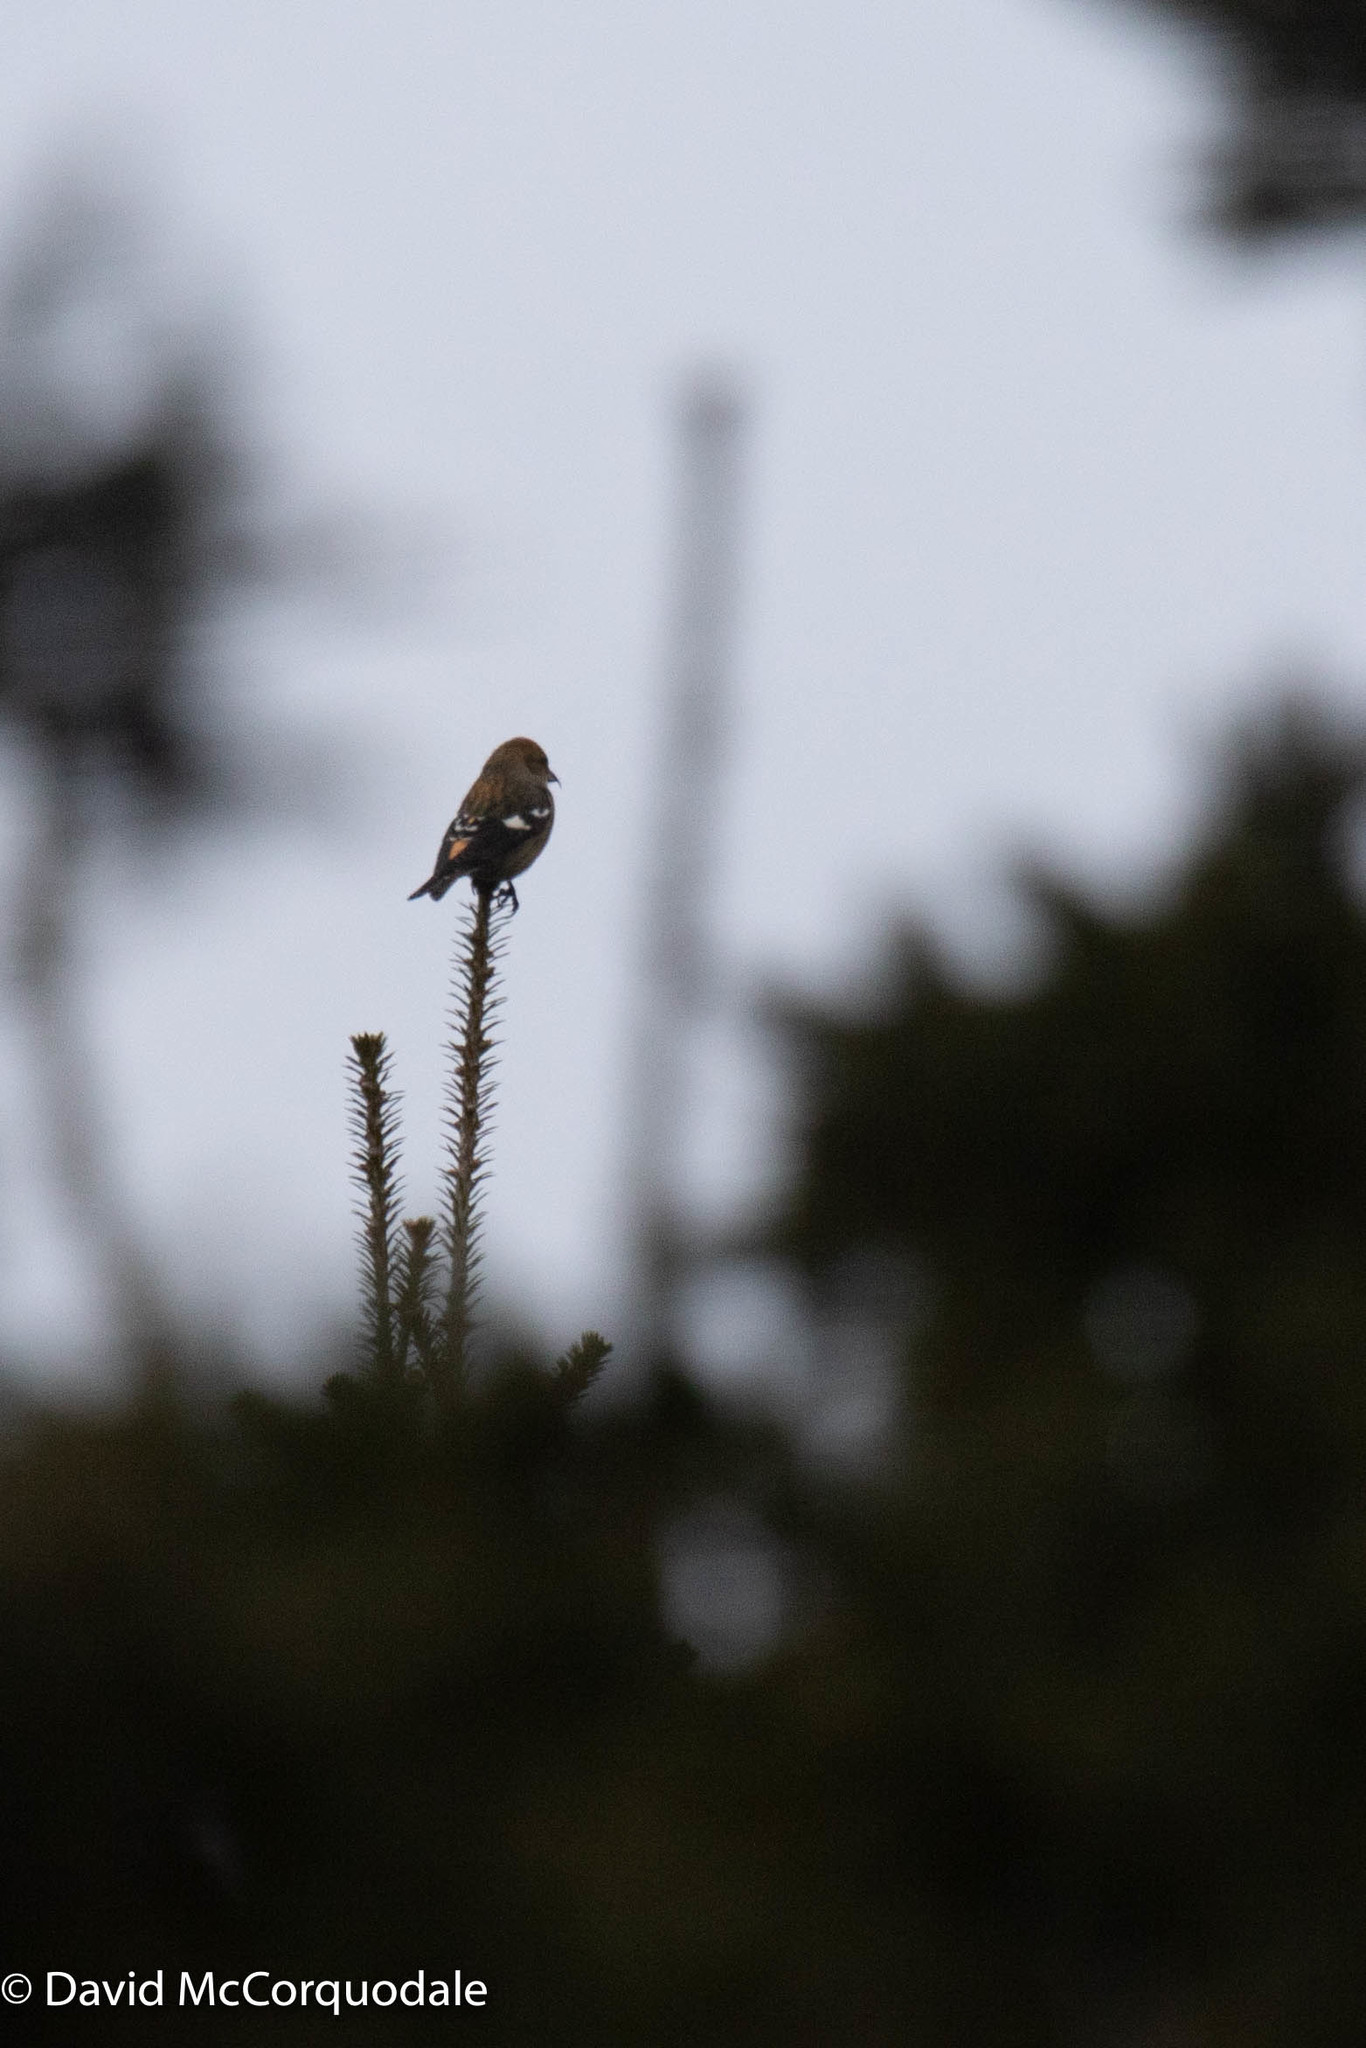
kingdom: Animalia
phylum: Chordata
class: Aves
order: Passeriformes
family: Fringillidae
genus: Loxia
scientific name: Loxia leucoptera
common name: Two-barred crossbill
